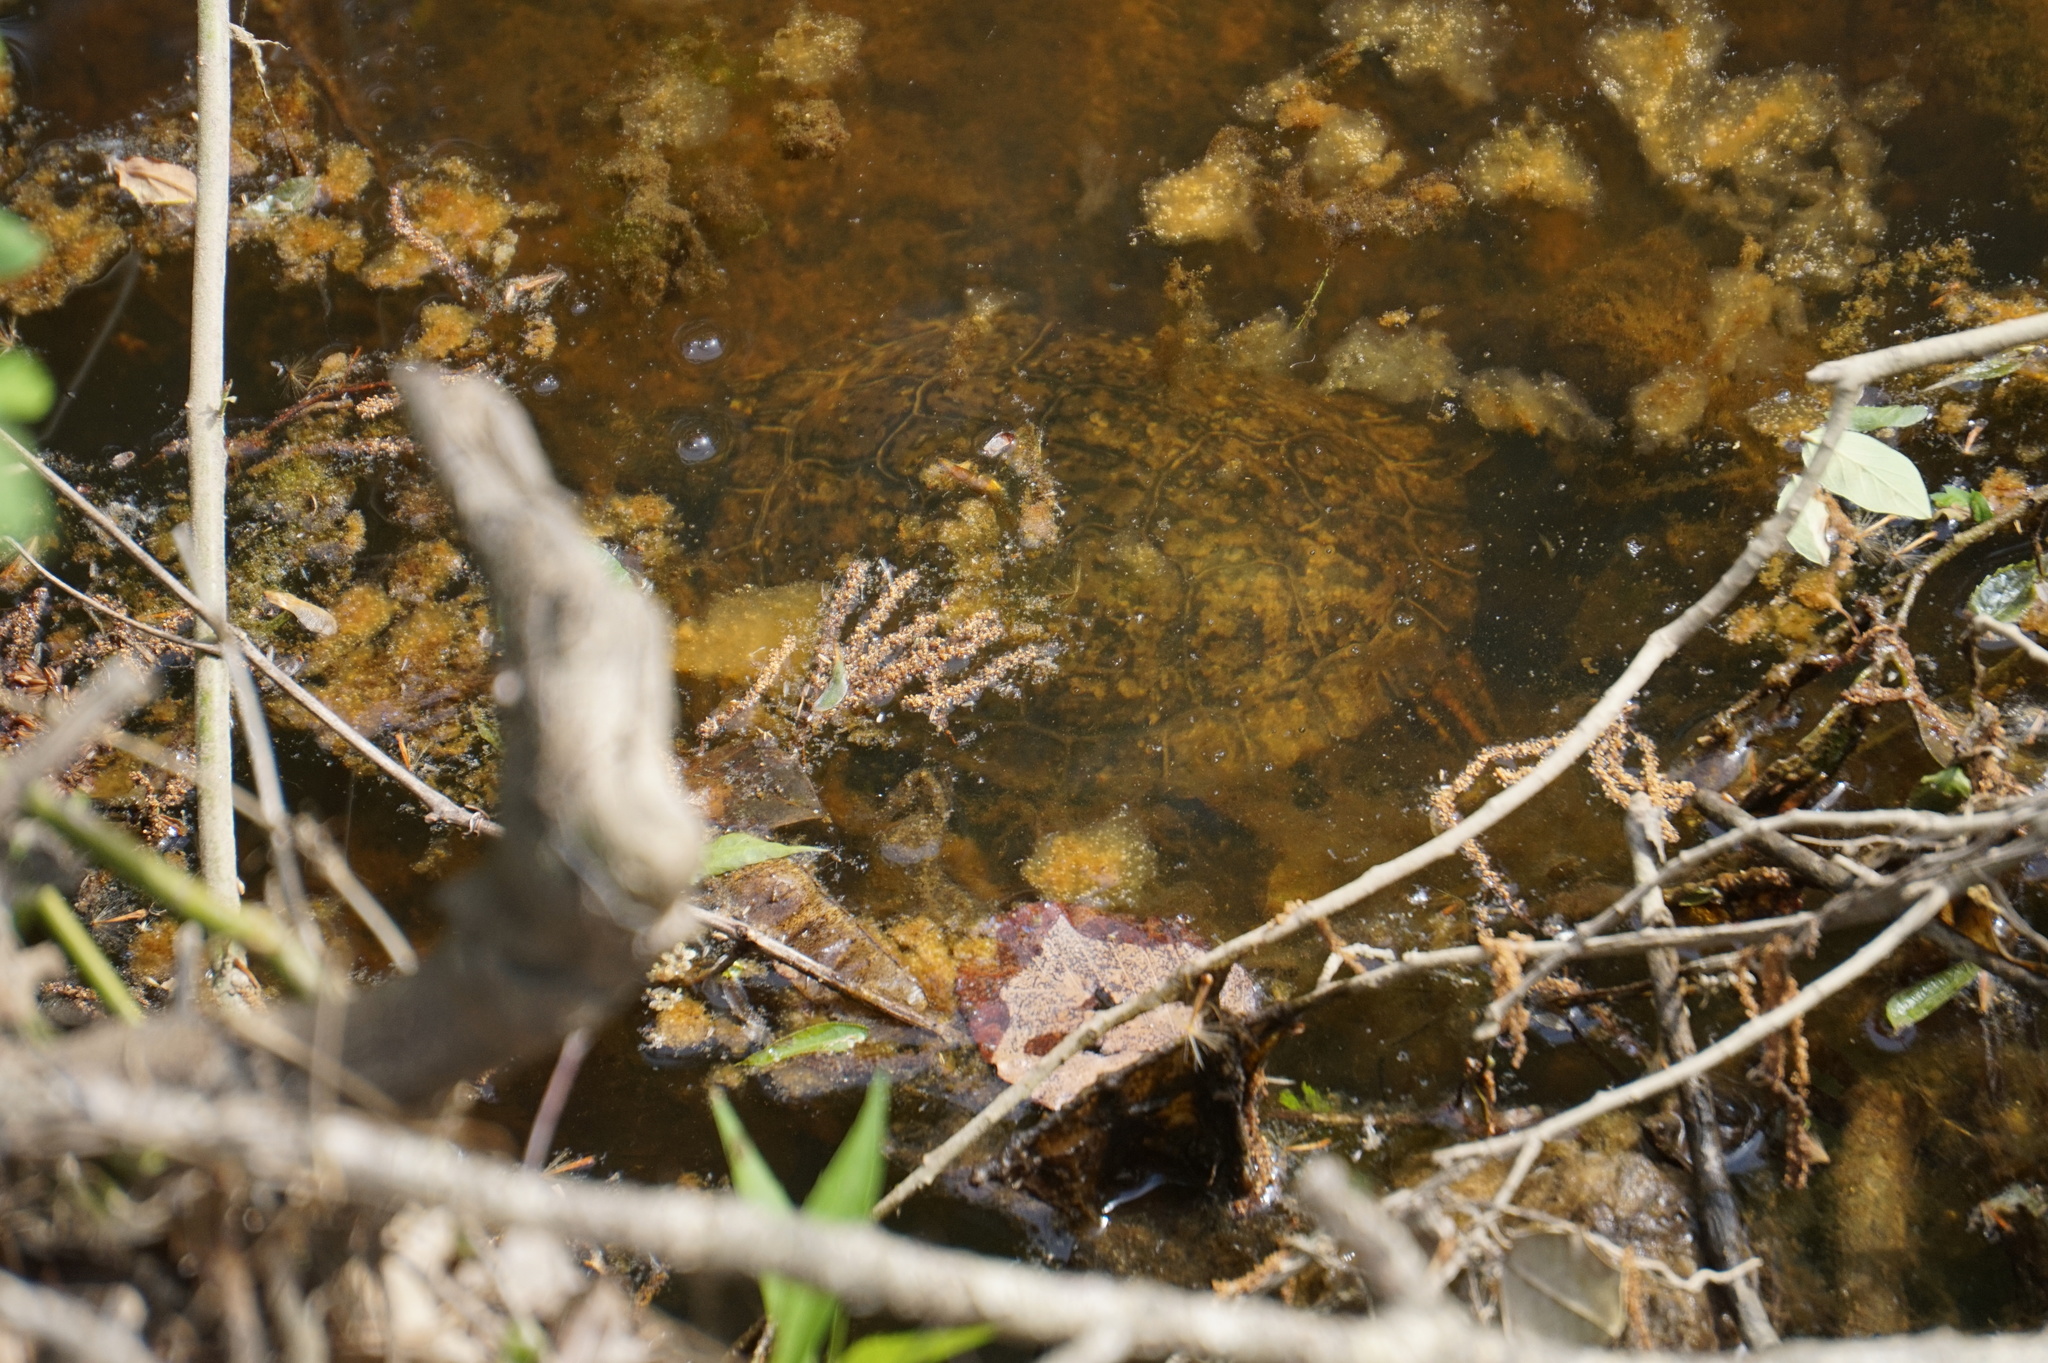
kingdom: Animalia
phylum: Chordata
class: Testudines
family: Emydidae
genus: Trachemys
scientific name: Trachemys scripta
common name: Slider
